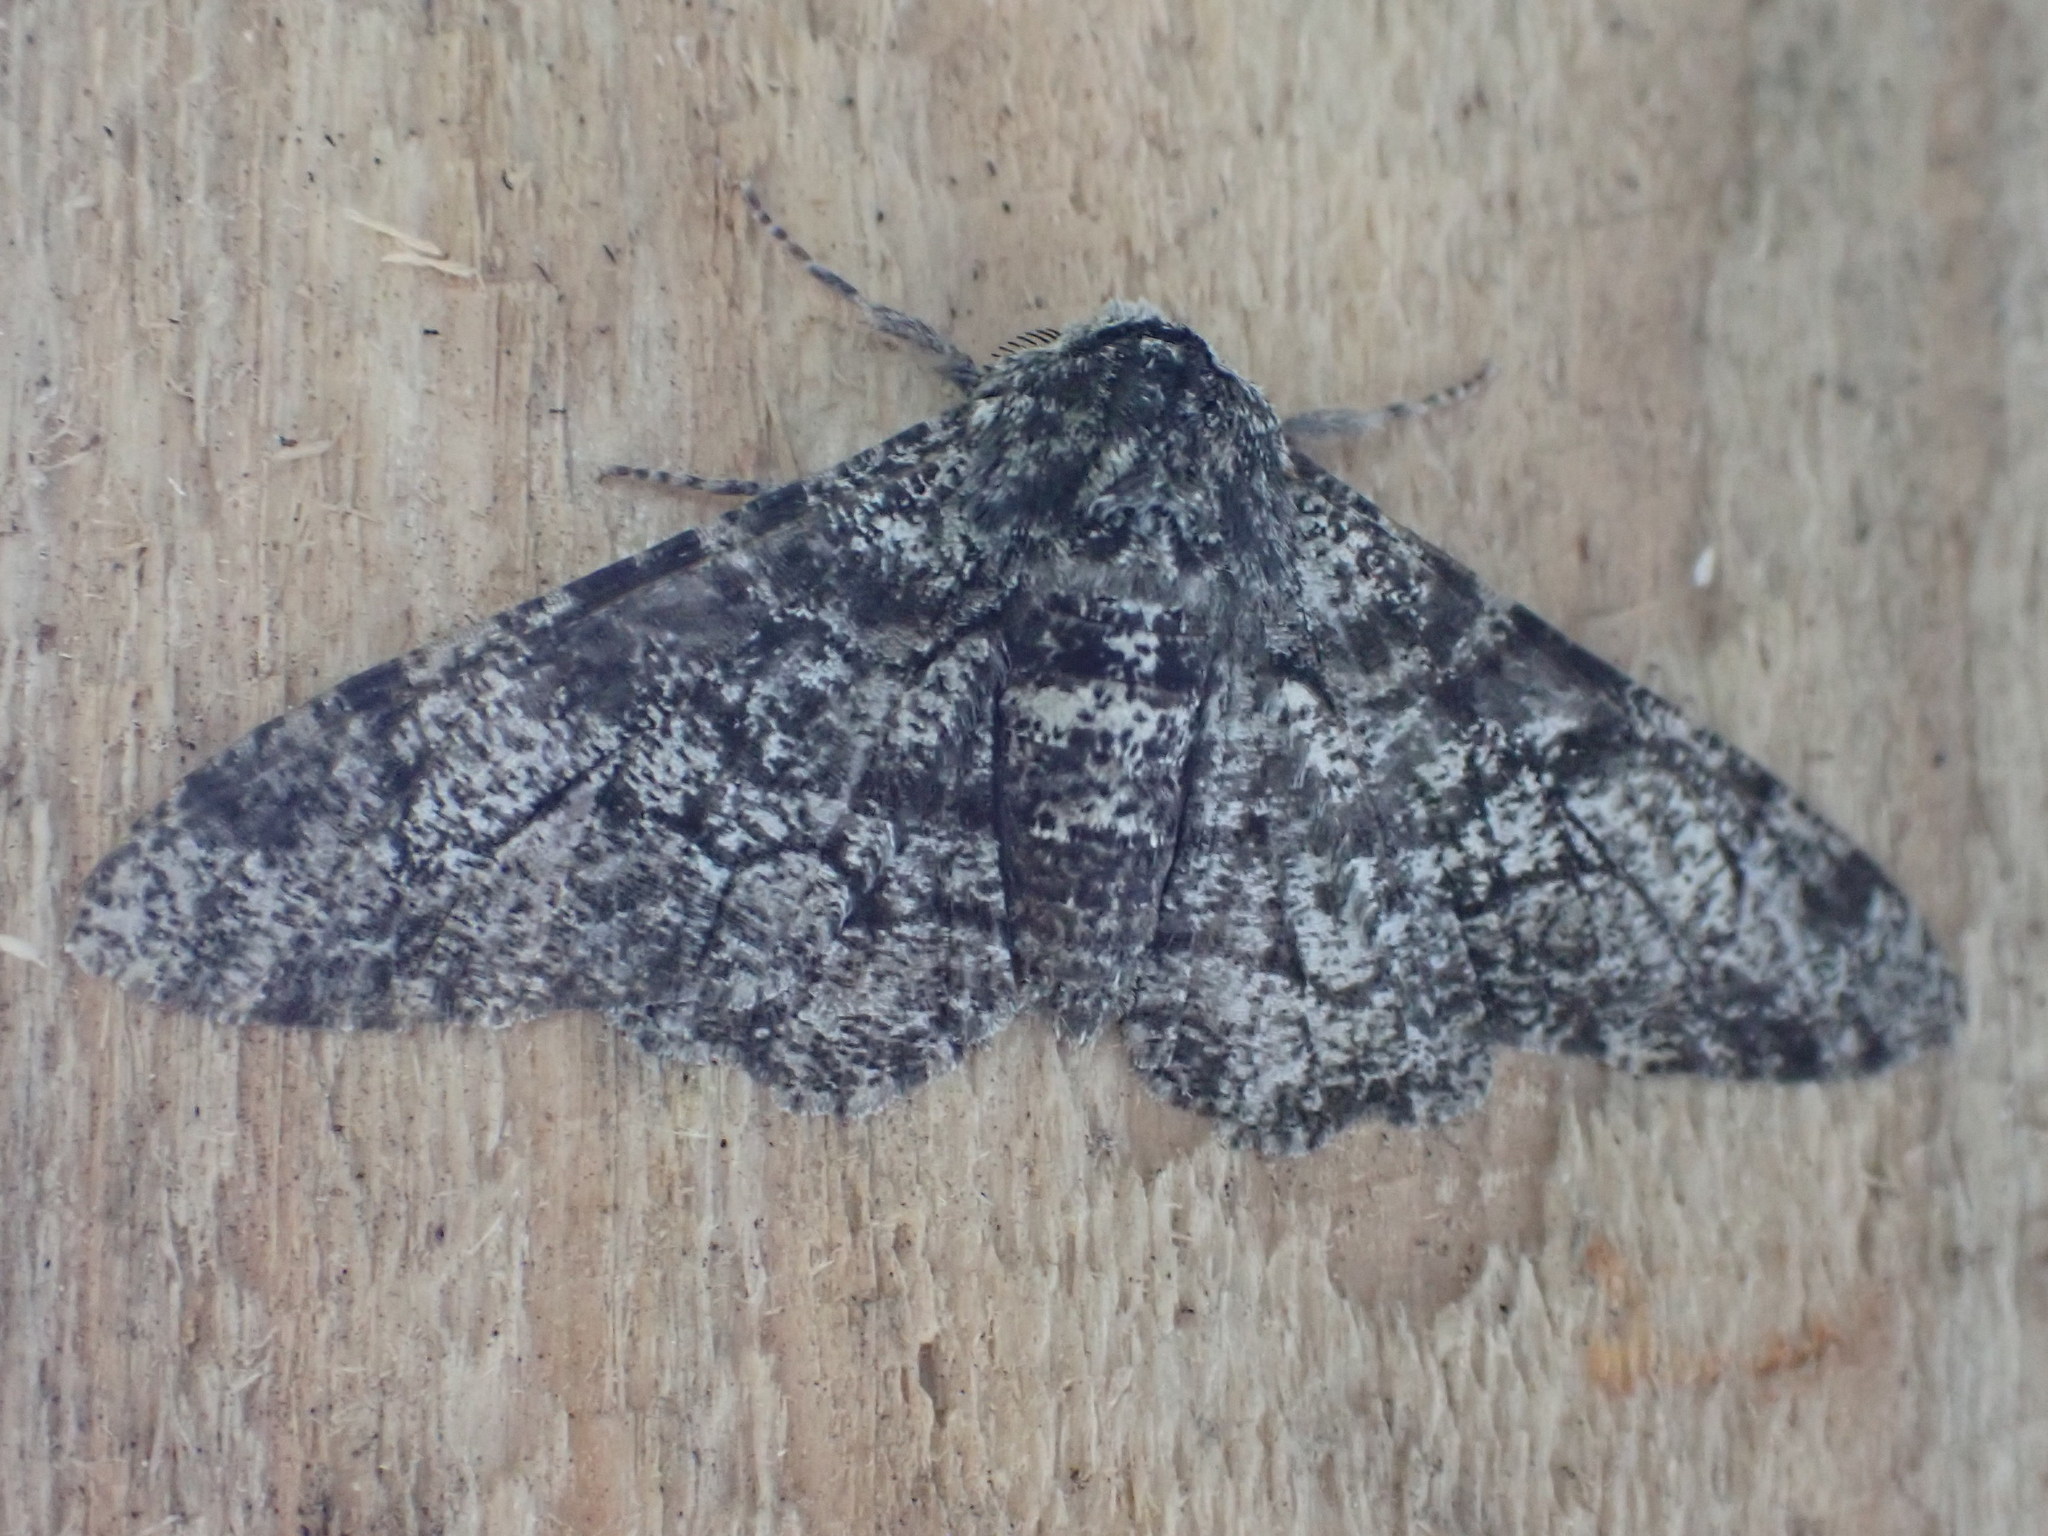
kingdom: Animalia
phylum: Arthropoda
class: Insecta
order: Lepidoptera
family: Geometridae
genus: Biston
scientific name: Biston betularia
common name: Peppered moth
